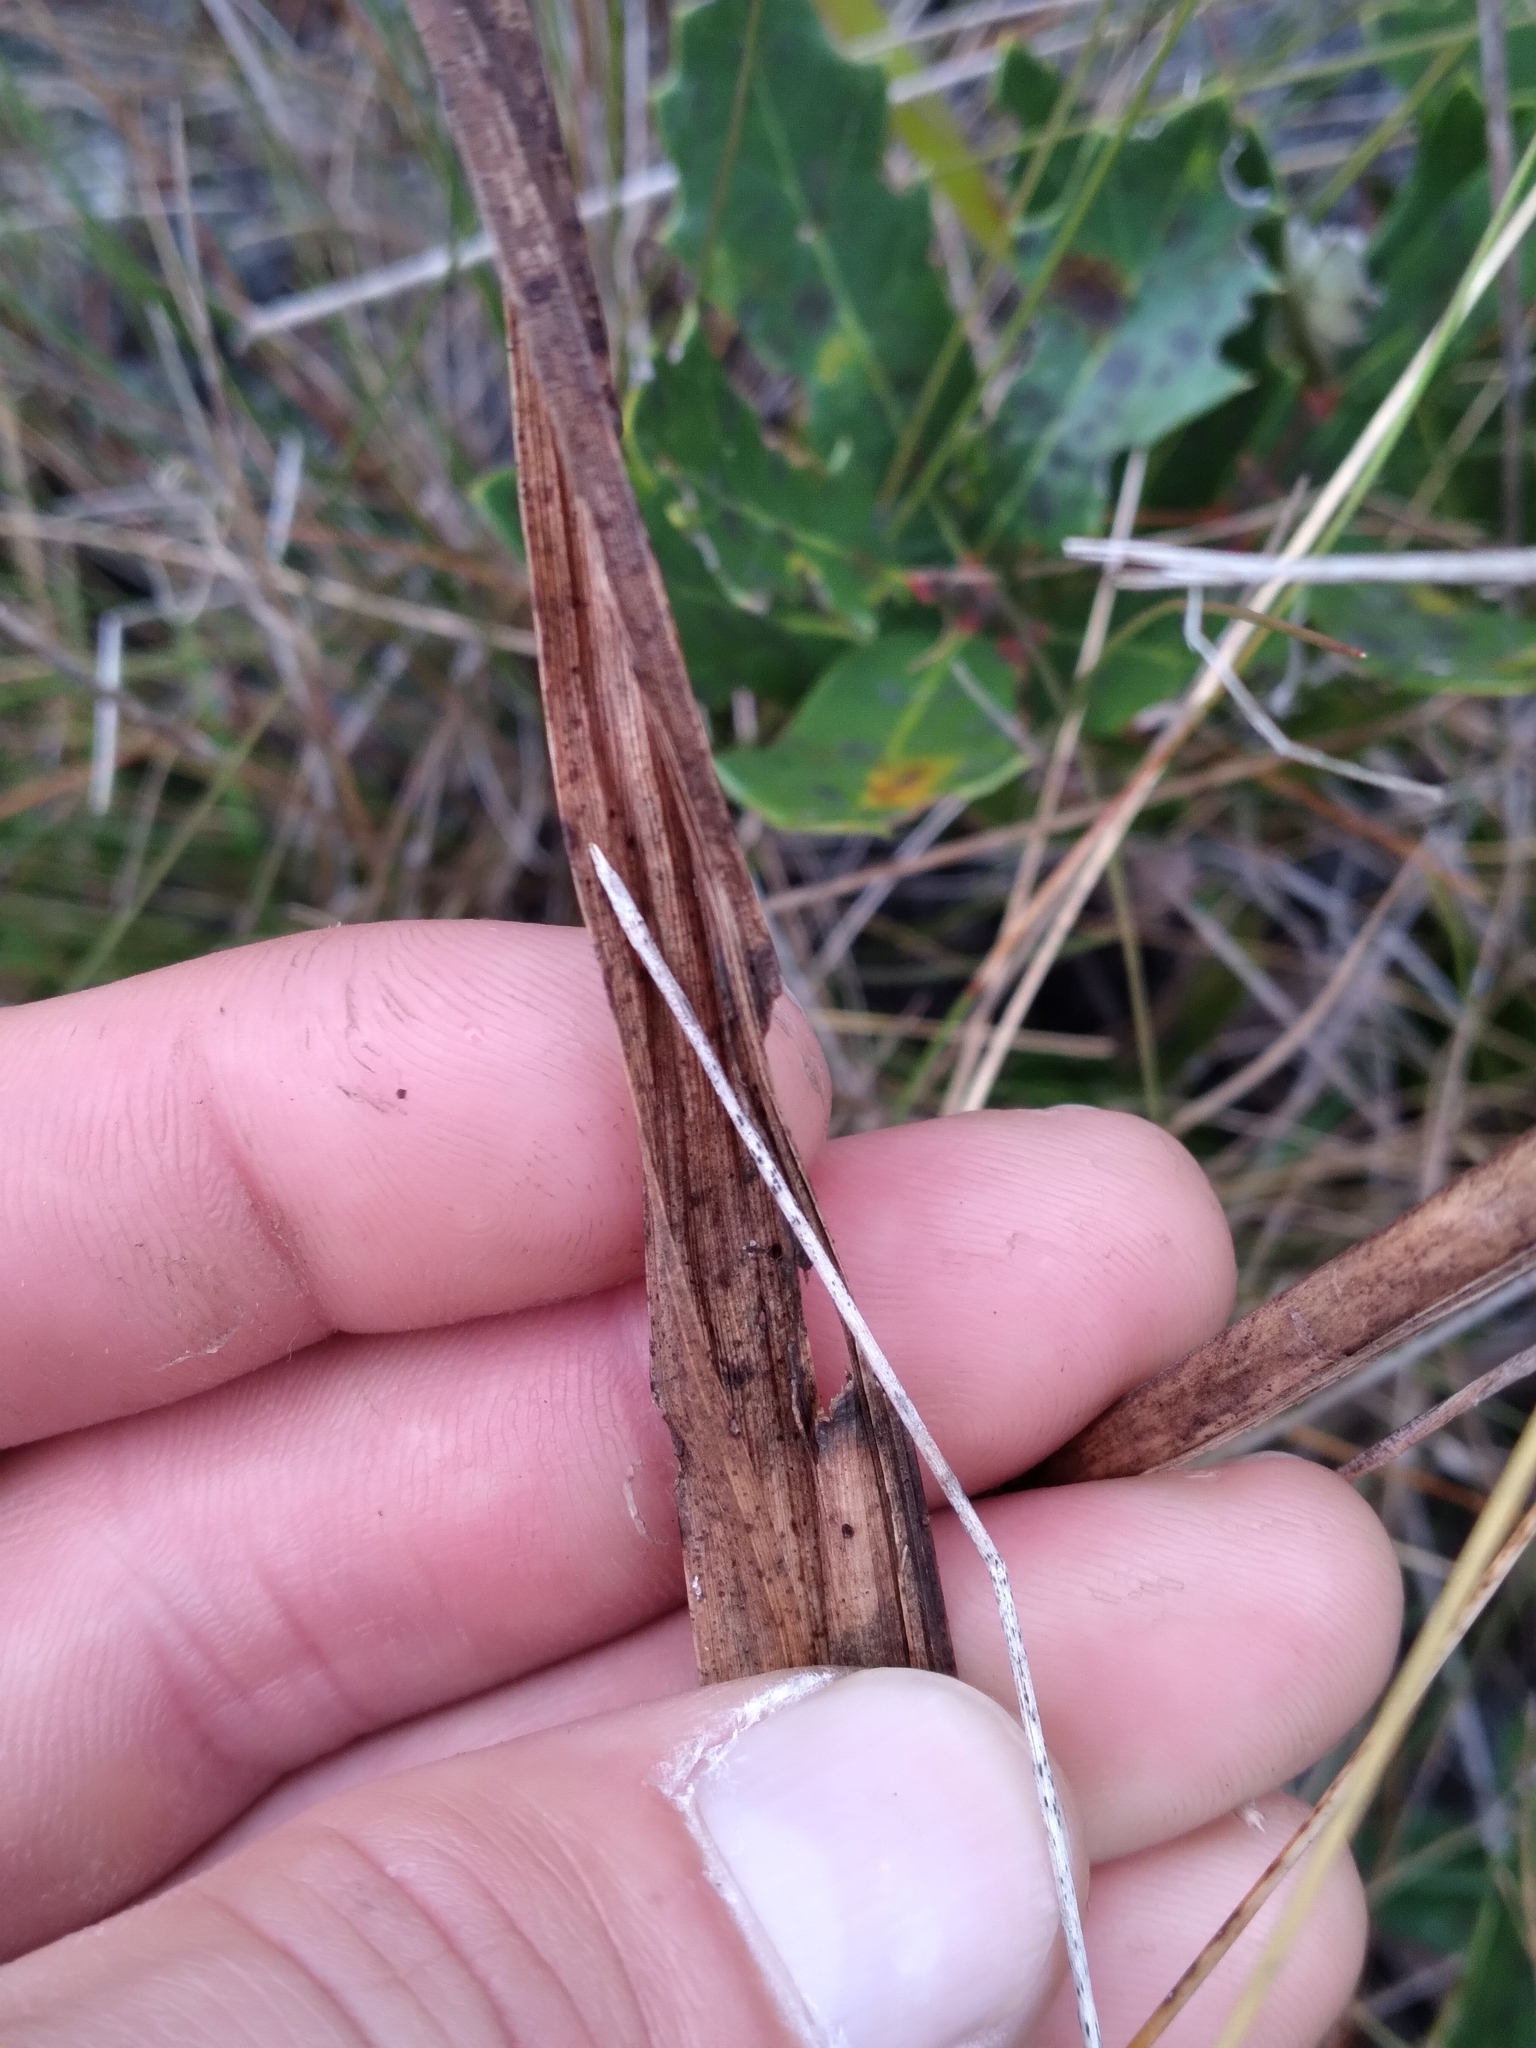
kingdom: Plantae
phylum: Tracheophyta
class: Liliopsida
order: Asparagales
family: Orchidaceae
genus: Eulophia
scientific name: Eulophia ecristata
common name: Giant orchid
